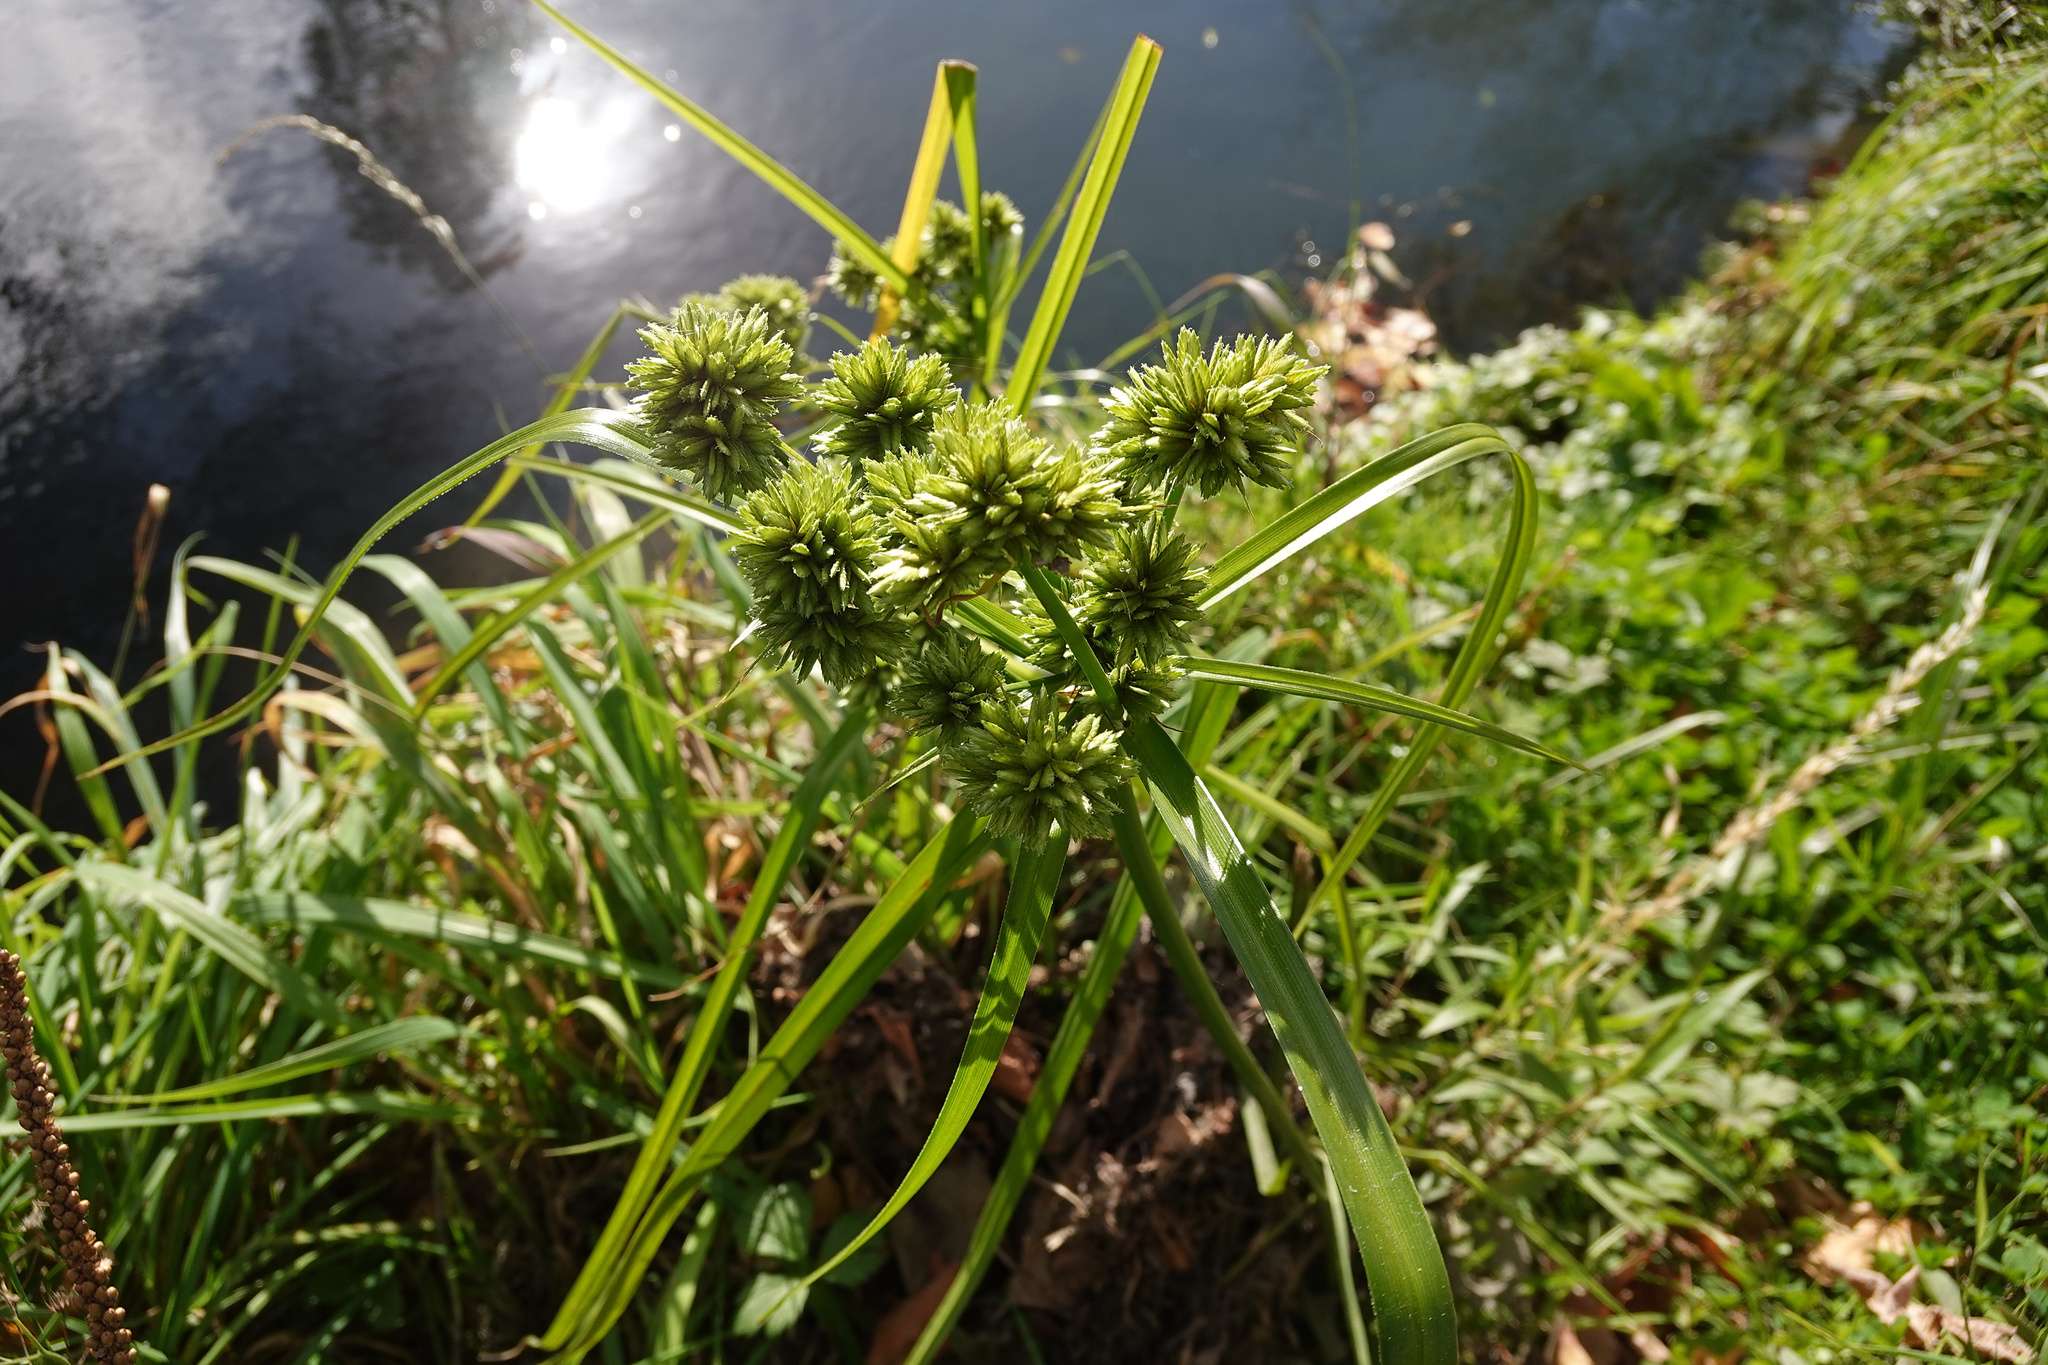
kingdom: Plantae
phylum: Tracheophyta
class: Liliopsida
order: Poales
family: Cyperaceae
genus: Cyperus
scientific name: Cyperus eragrostis
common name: Tall flatsedge
